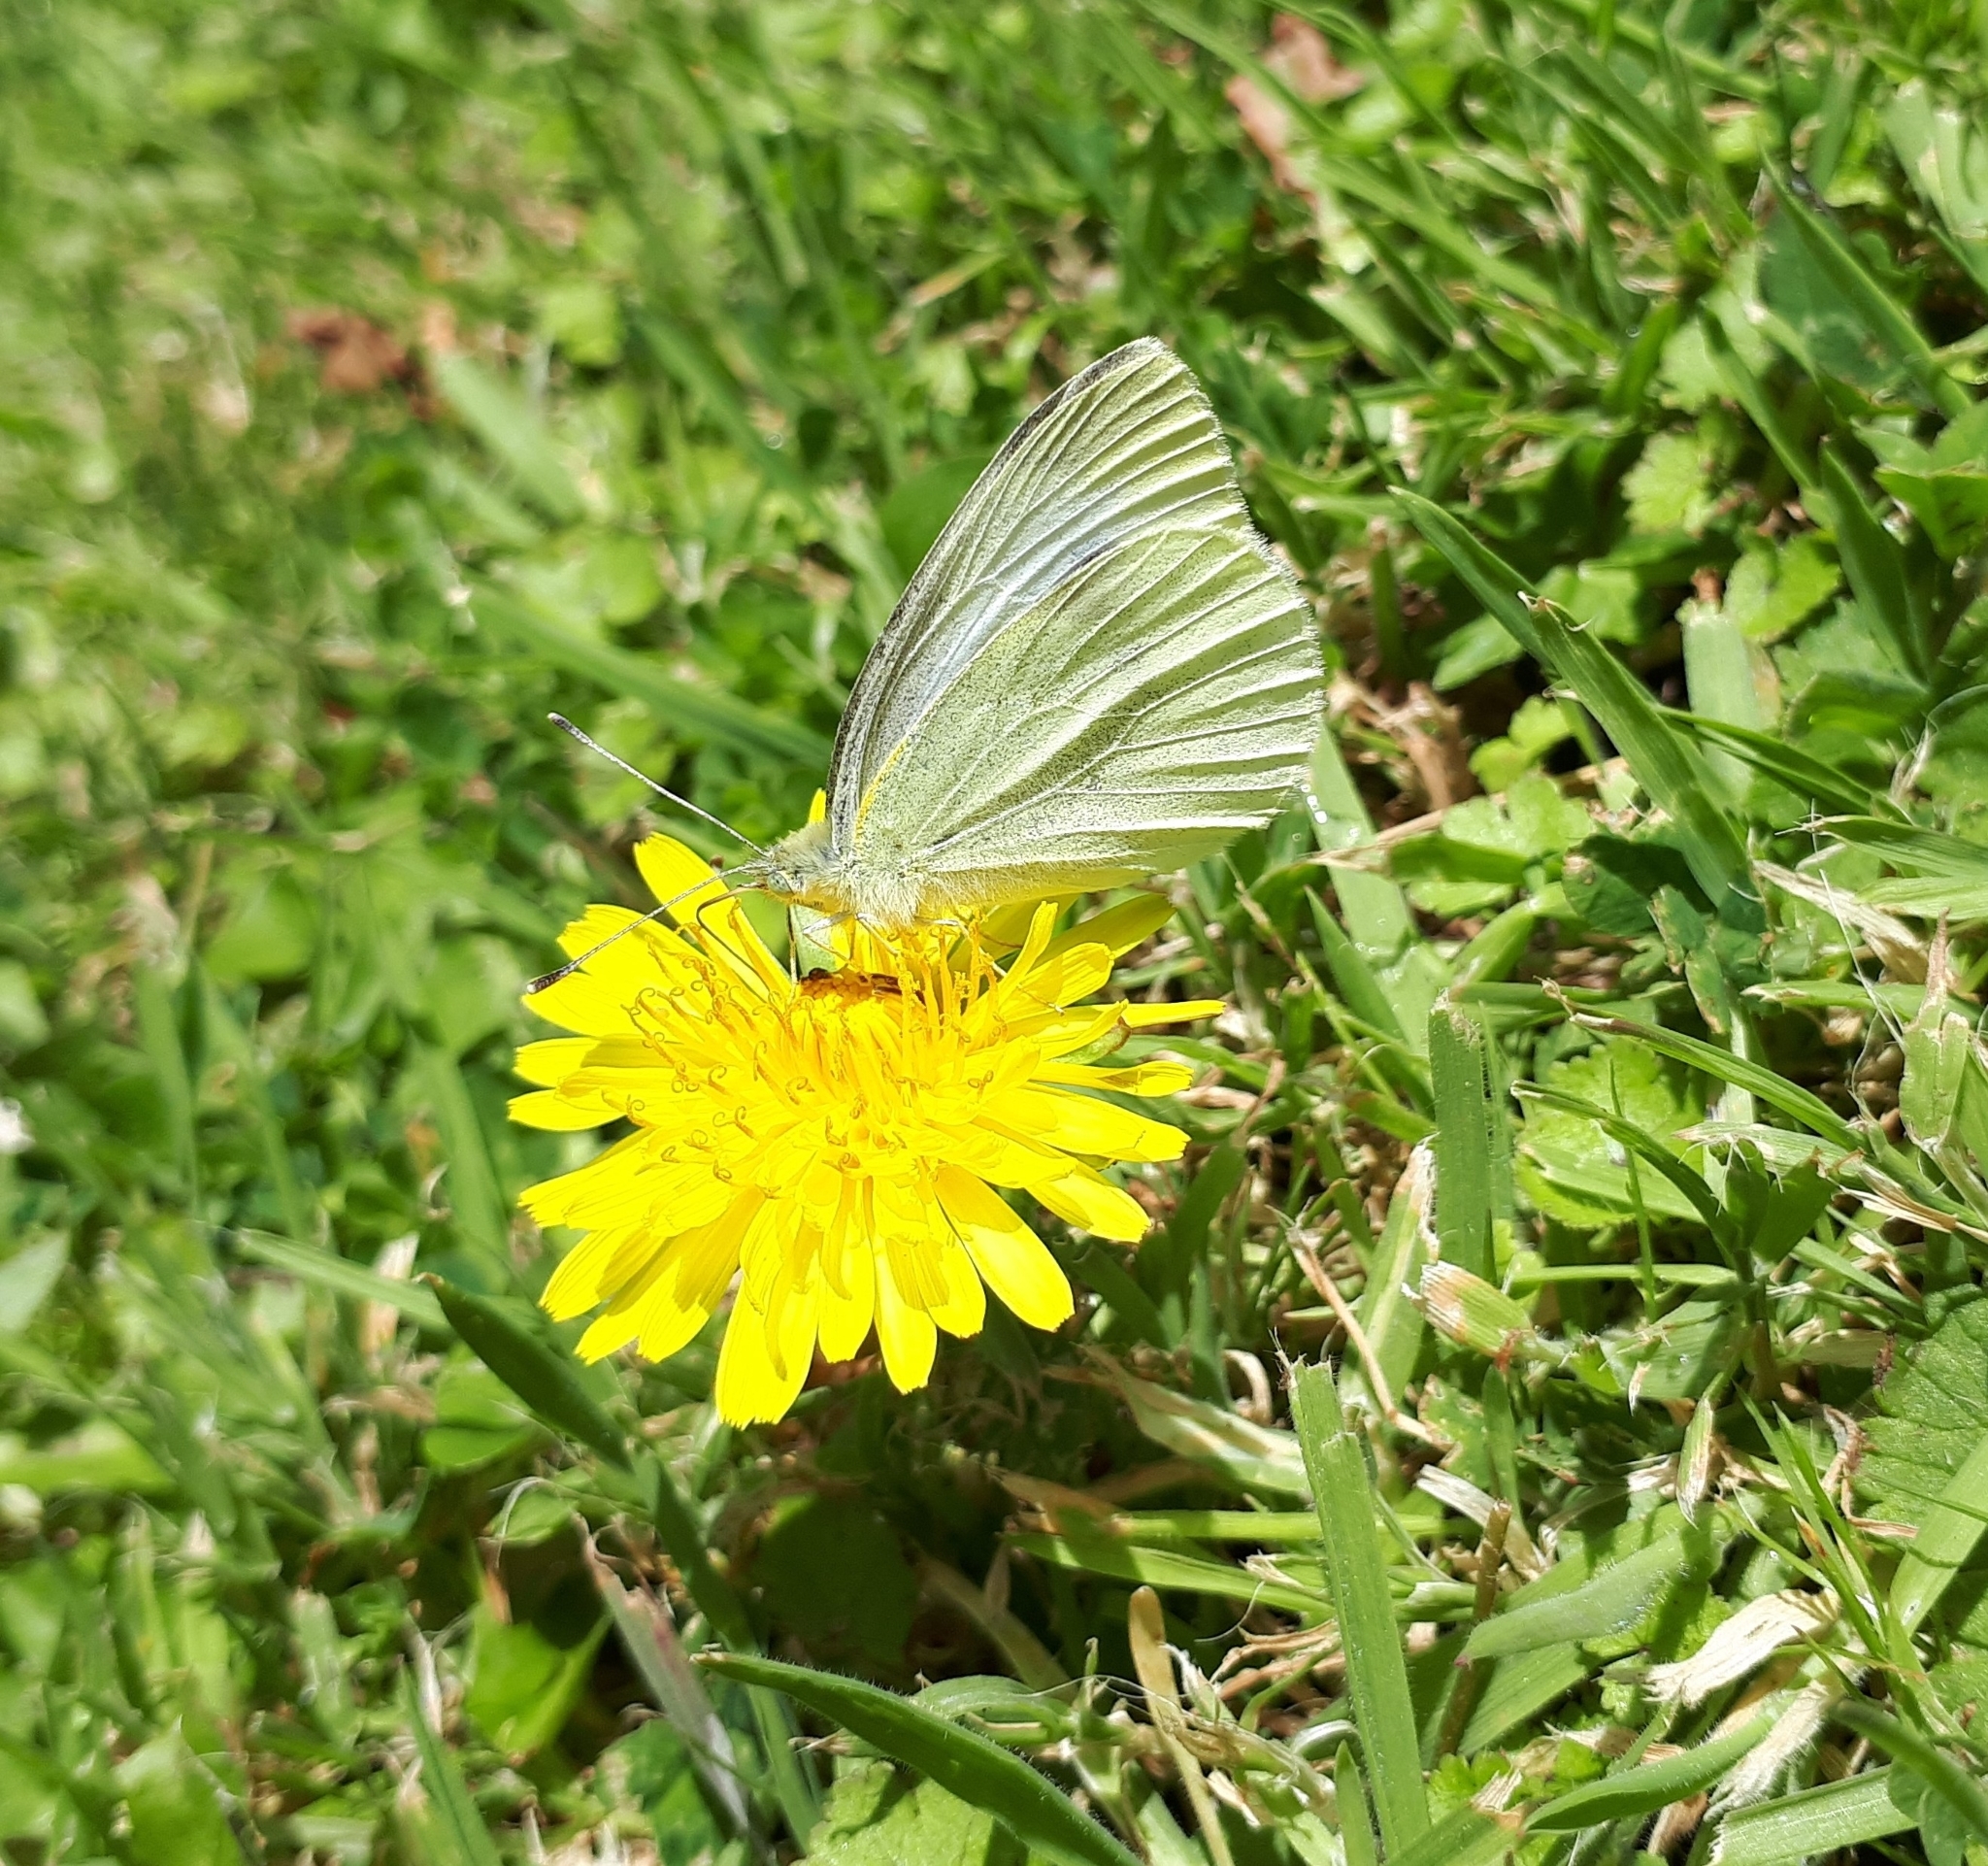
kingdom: Animalia
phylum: Arthropoda
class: Insecta
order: Lepidoptera
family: Pieridae
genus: Pieris
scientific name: Pieris rapae
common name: Small white
